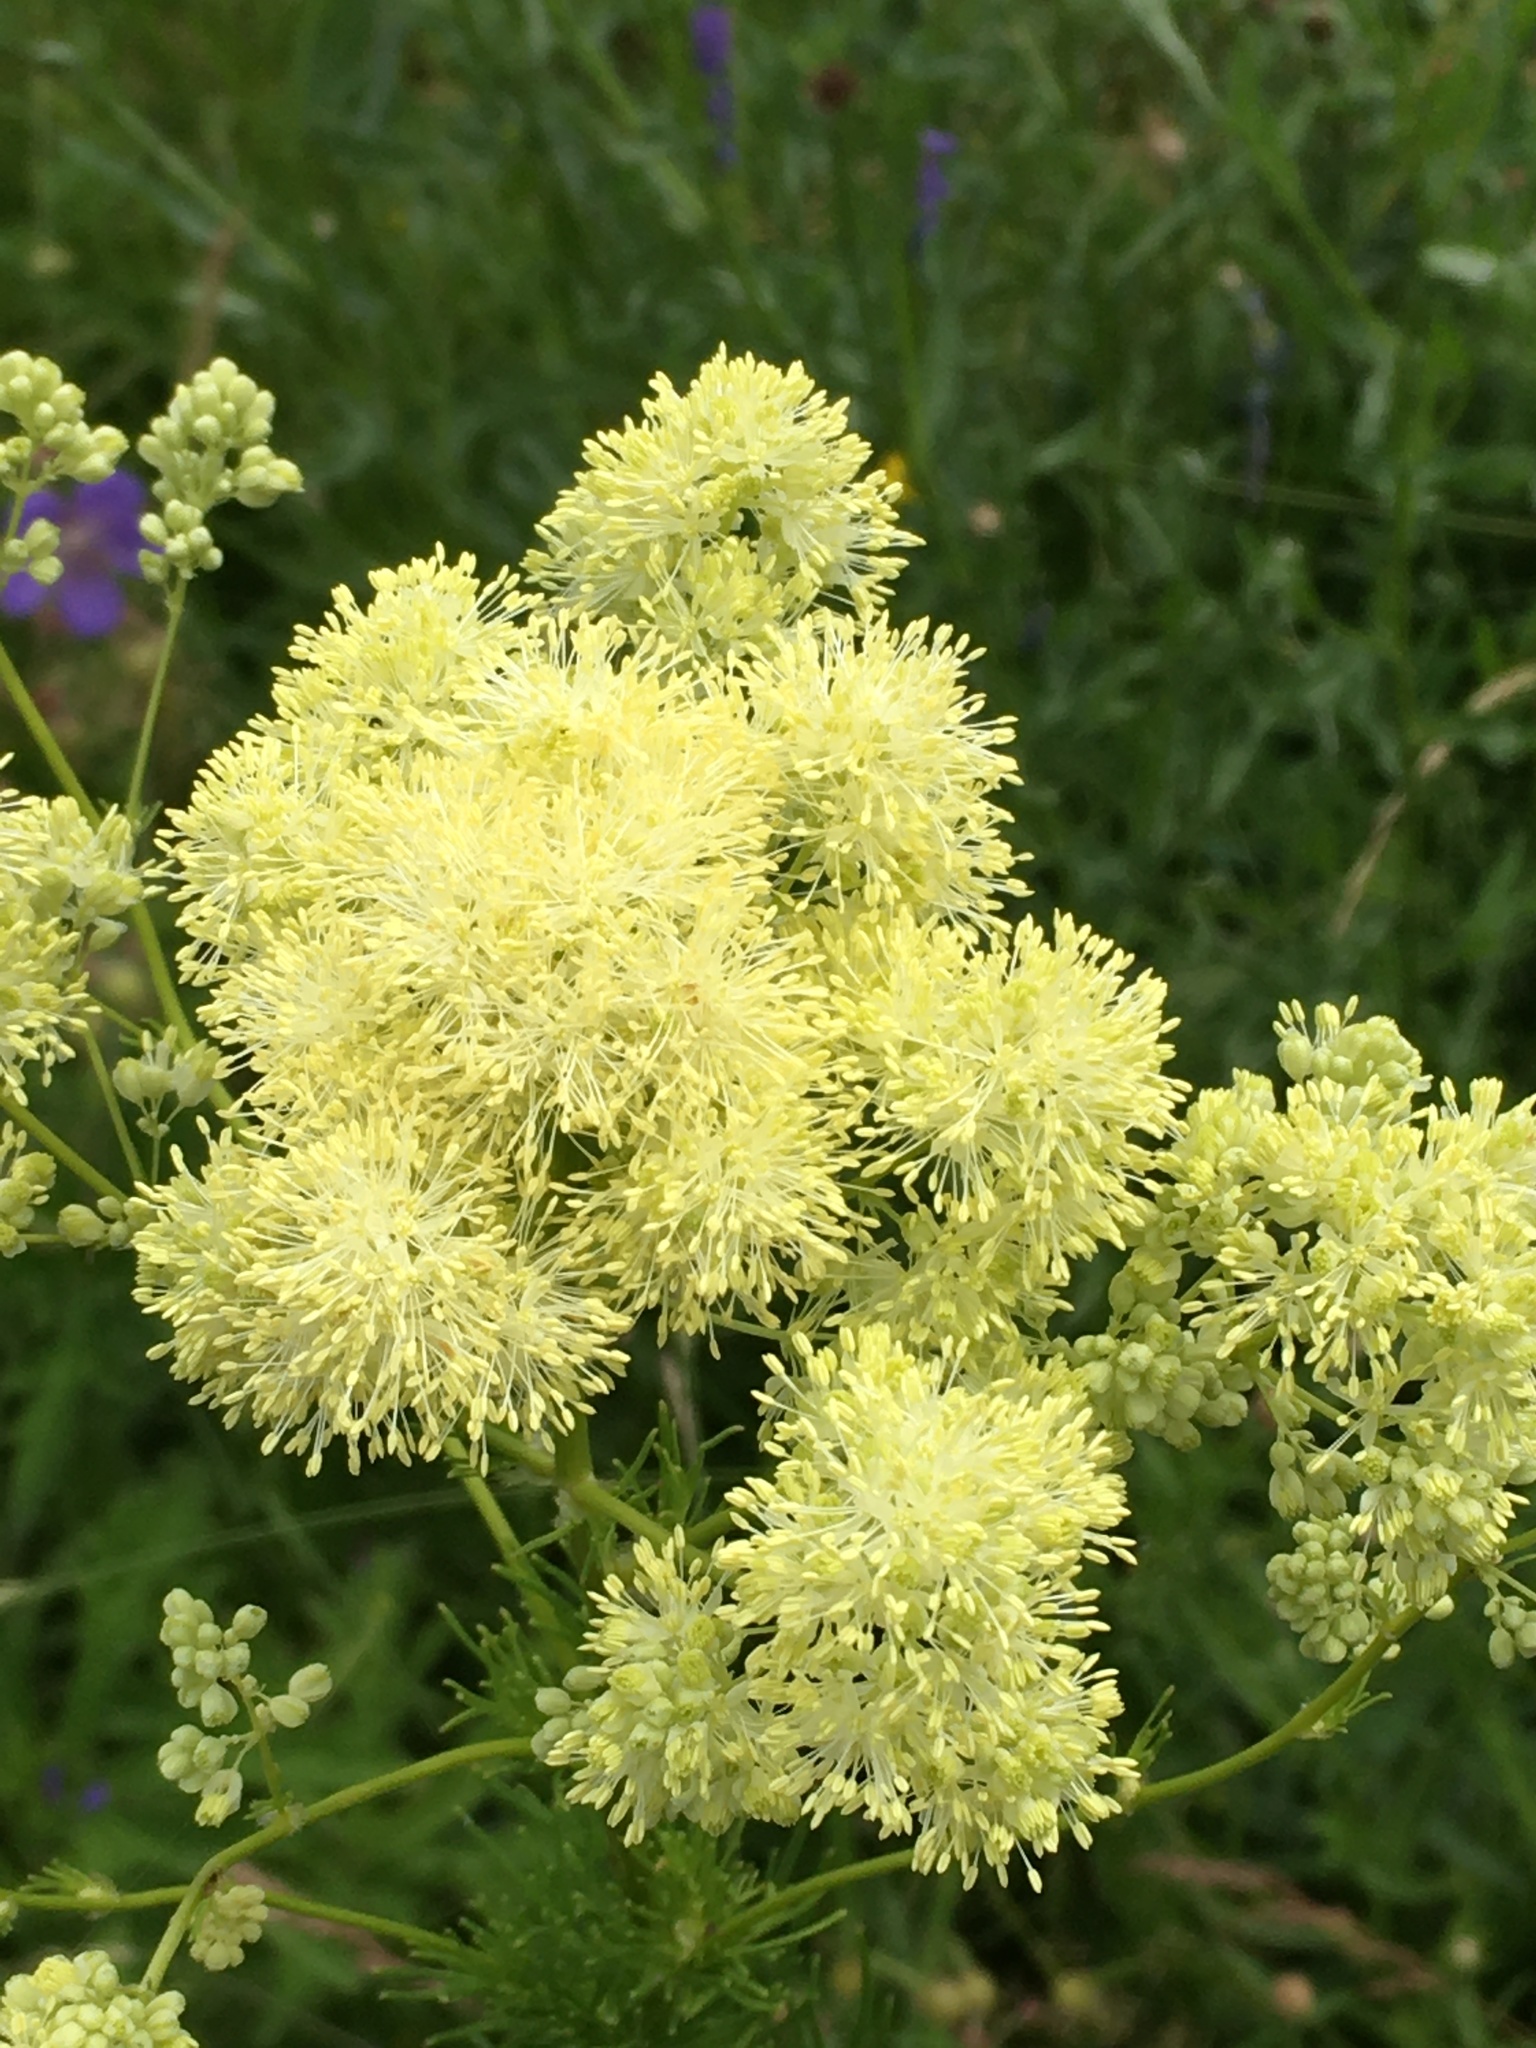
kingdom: Plantae
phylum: Tracheophyta
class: Magnoliopsida
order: Ranunculales
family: Ranunculaceae
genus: Thalictrum
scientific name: Thalictrum lucidum
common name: Shining meadow-rue
